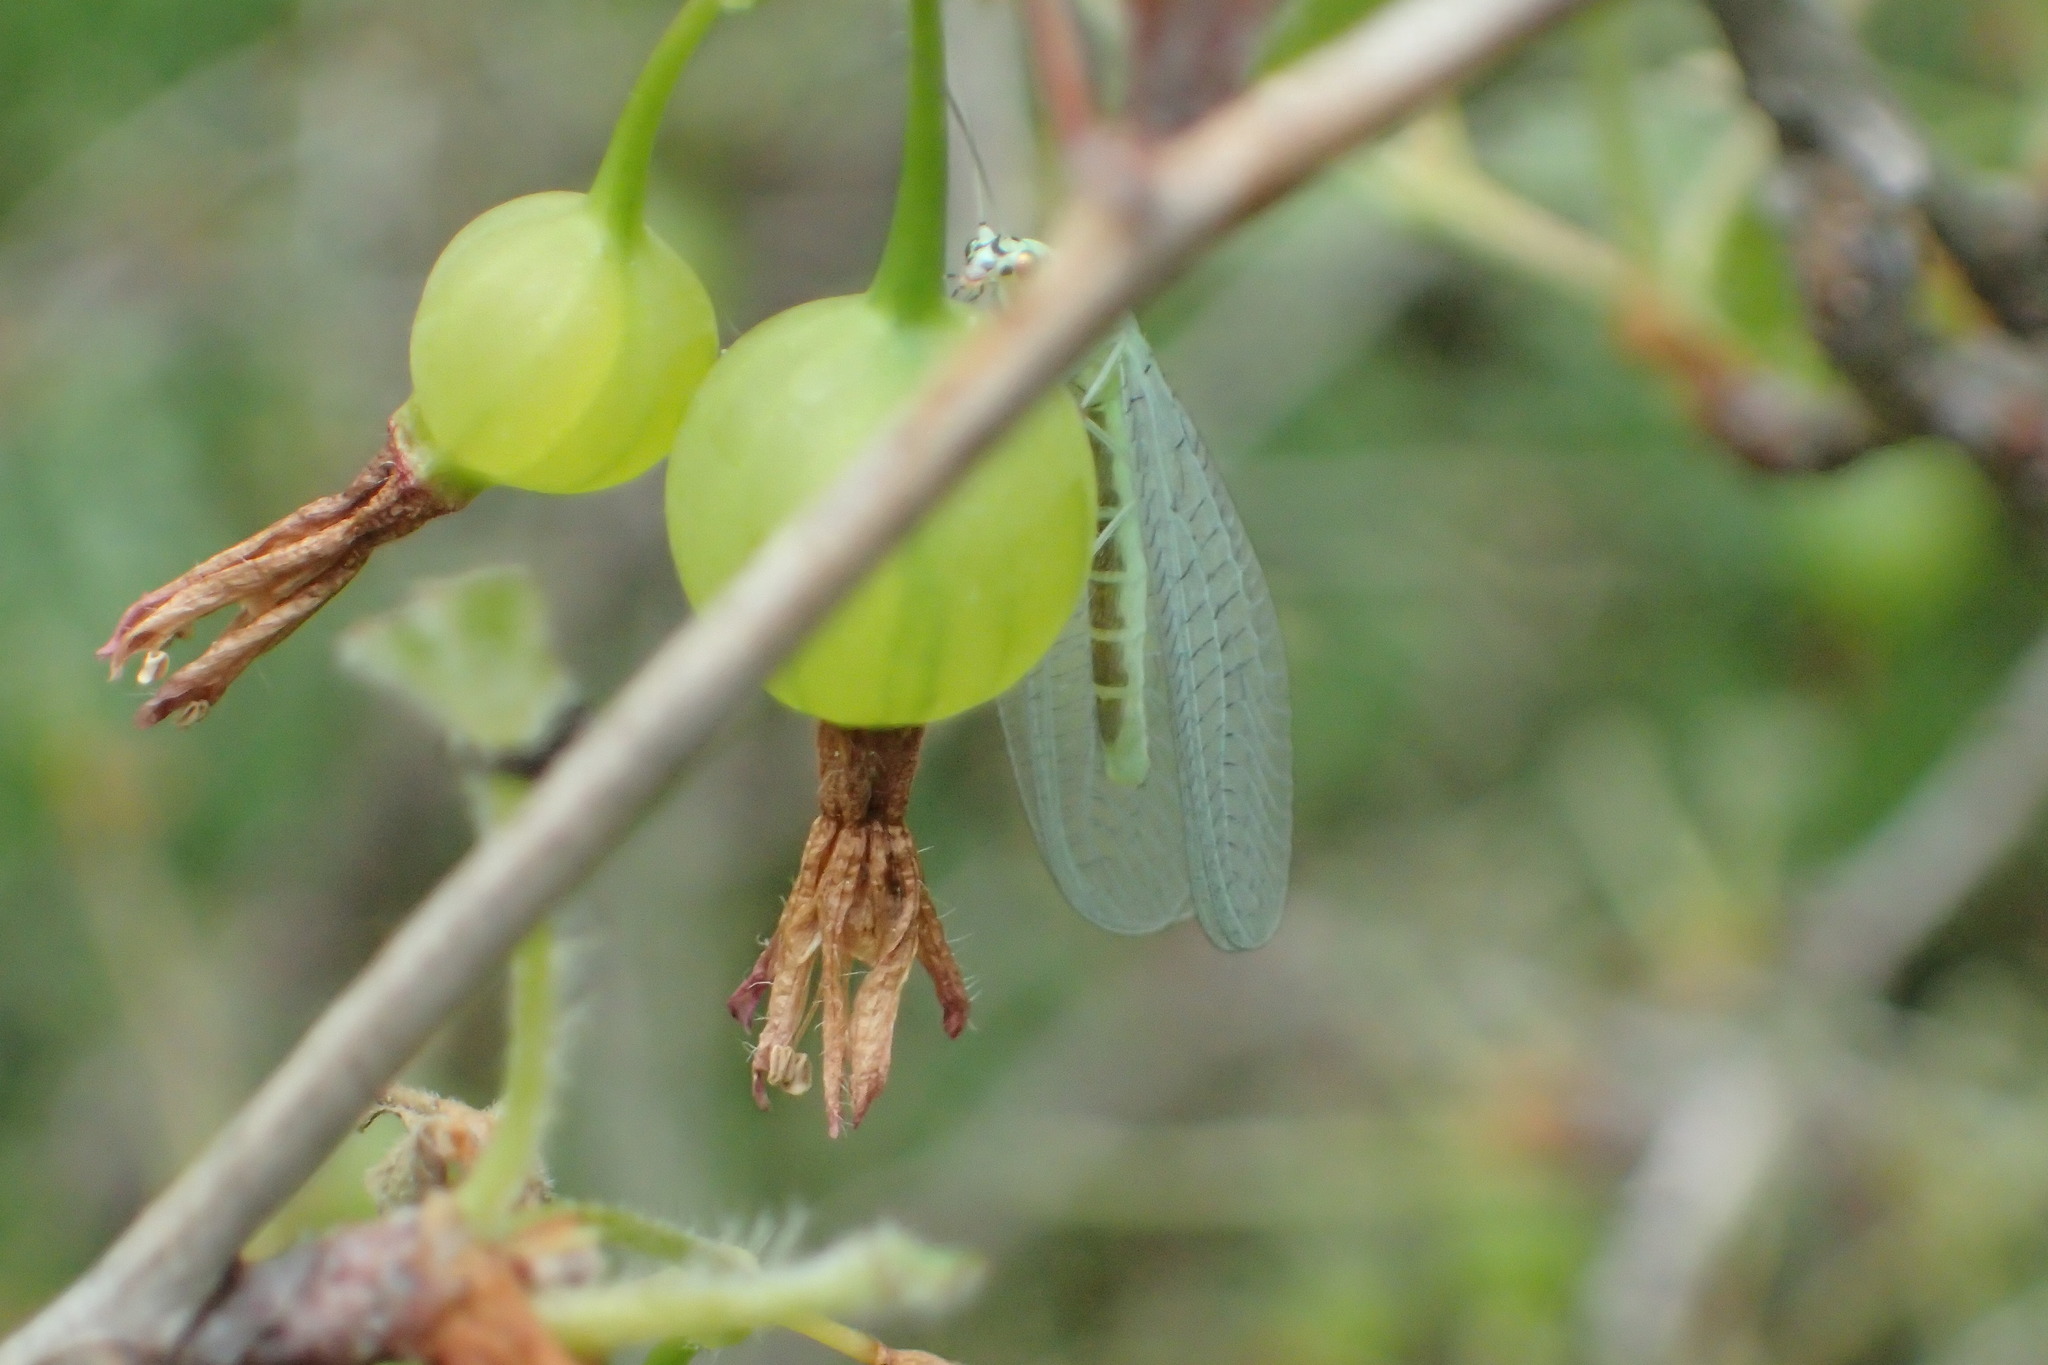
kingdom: Animalia
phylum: Arthropoda
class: Insecta
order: Neuroptera
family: Chrysopidae
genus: Chrysopa
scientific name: Chrysopa chi
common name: X-marked green lacewing
